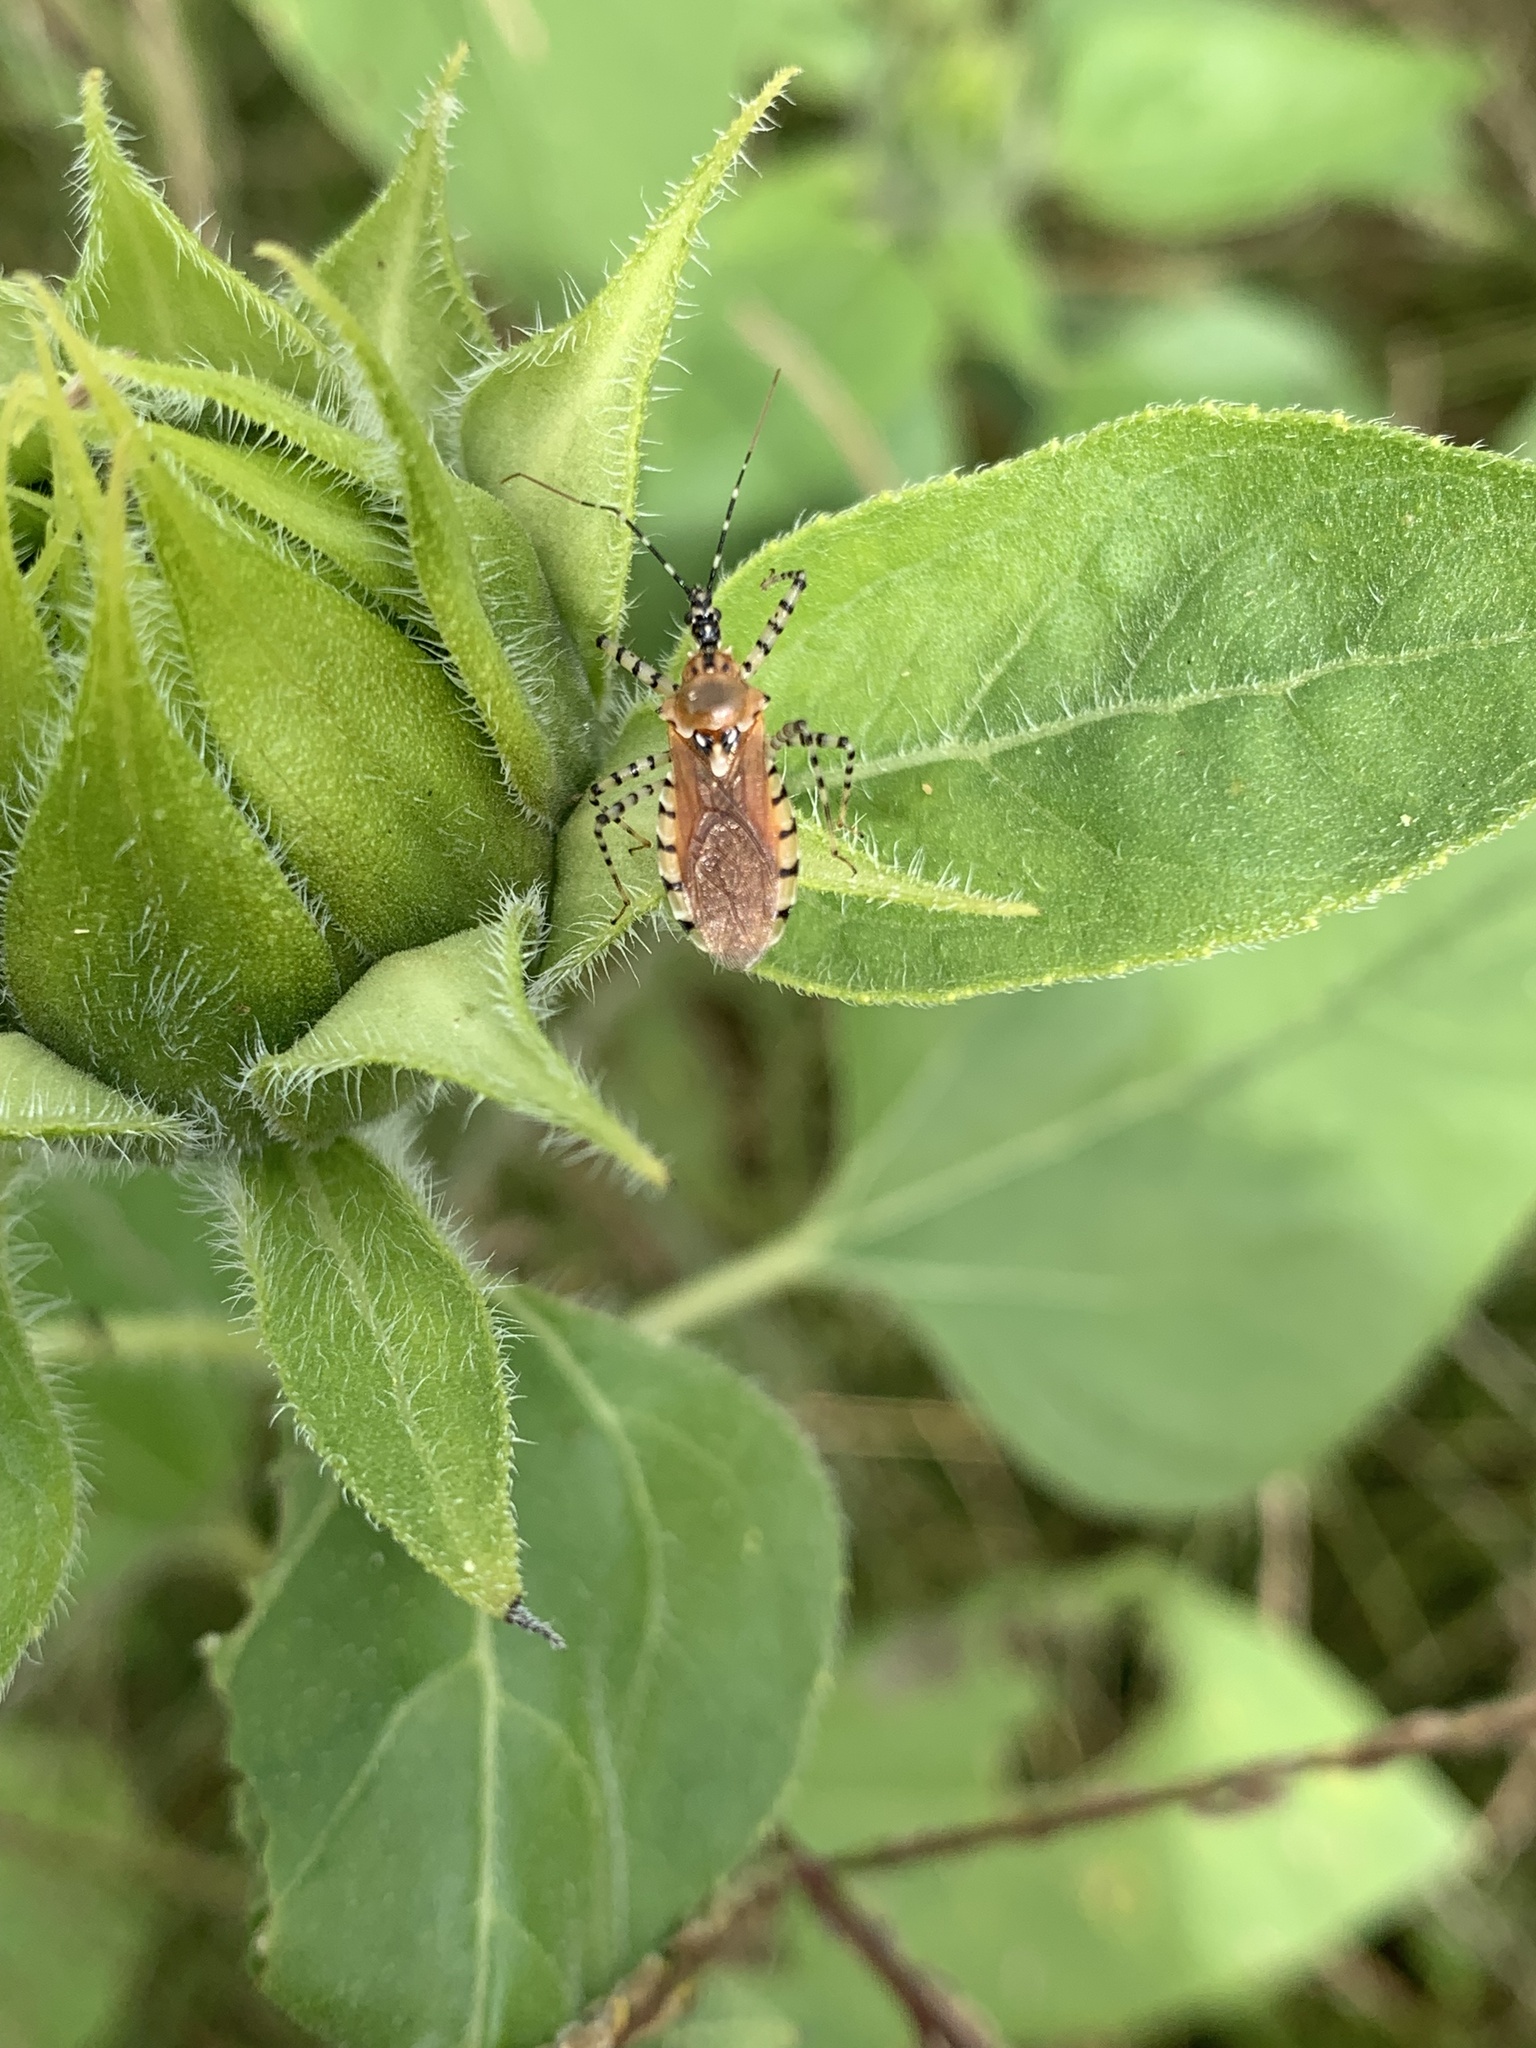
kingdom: Animalia
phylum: Arthropoda
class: Insecta
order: Hemiptera
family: Reduviidae
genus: Pselliopus
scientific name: Pselliopus cinctus
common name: Ringed assassin bug
